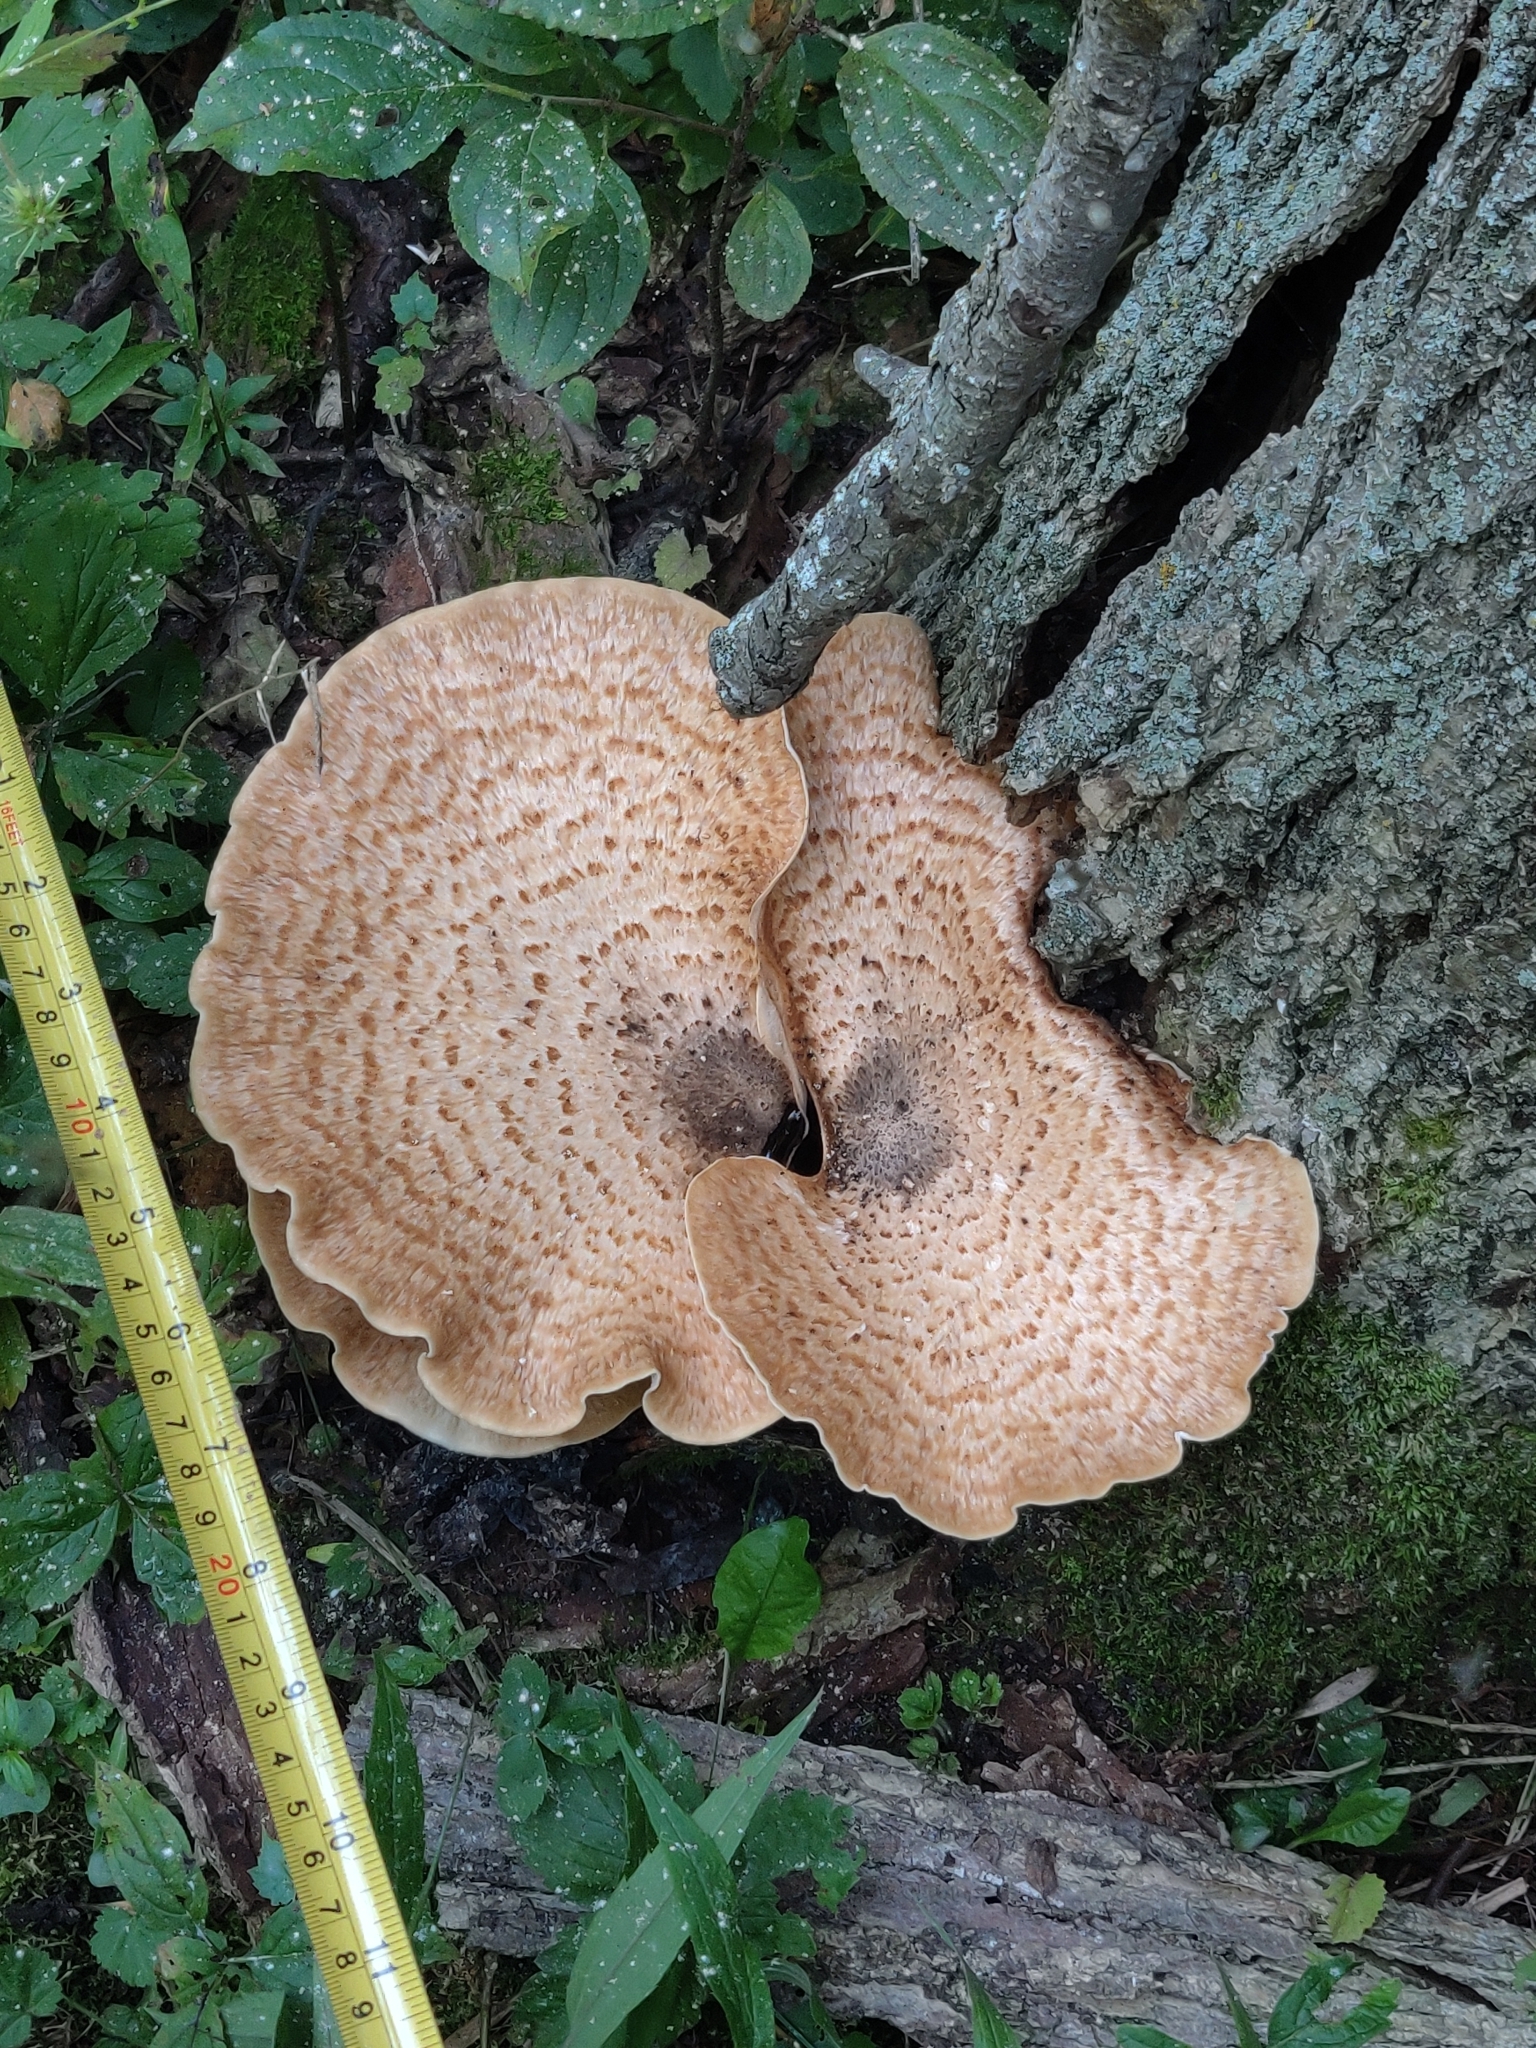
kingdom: Fungi
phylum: Basidiomycota
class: Agaricomycetes
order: Polyporales
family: Polyporaceae
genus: Cerioporus
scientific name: Cerioporus squamosus
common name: Dryad's saddle
